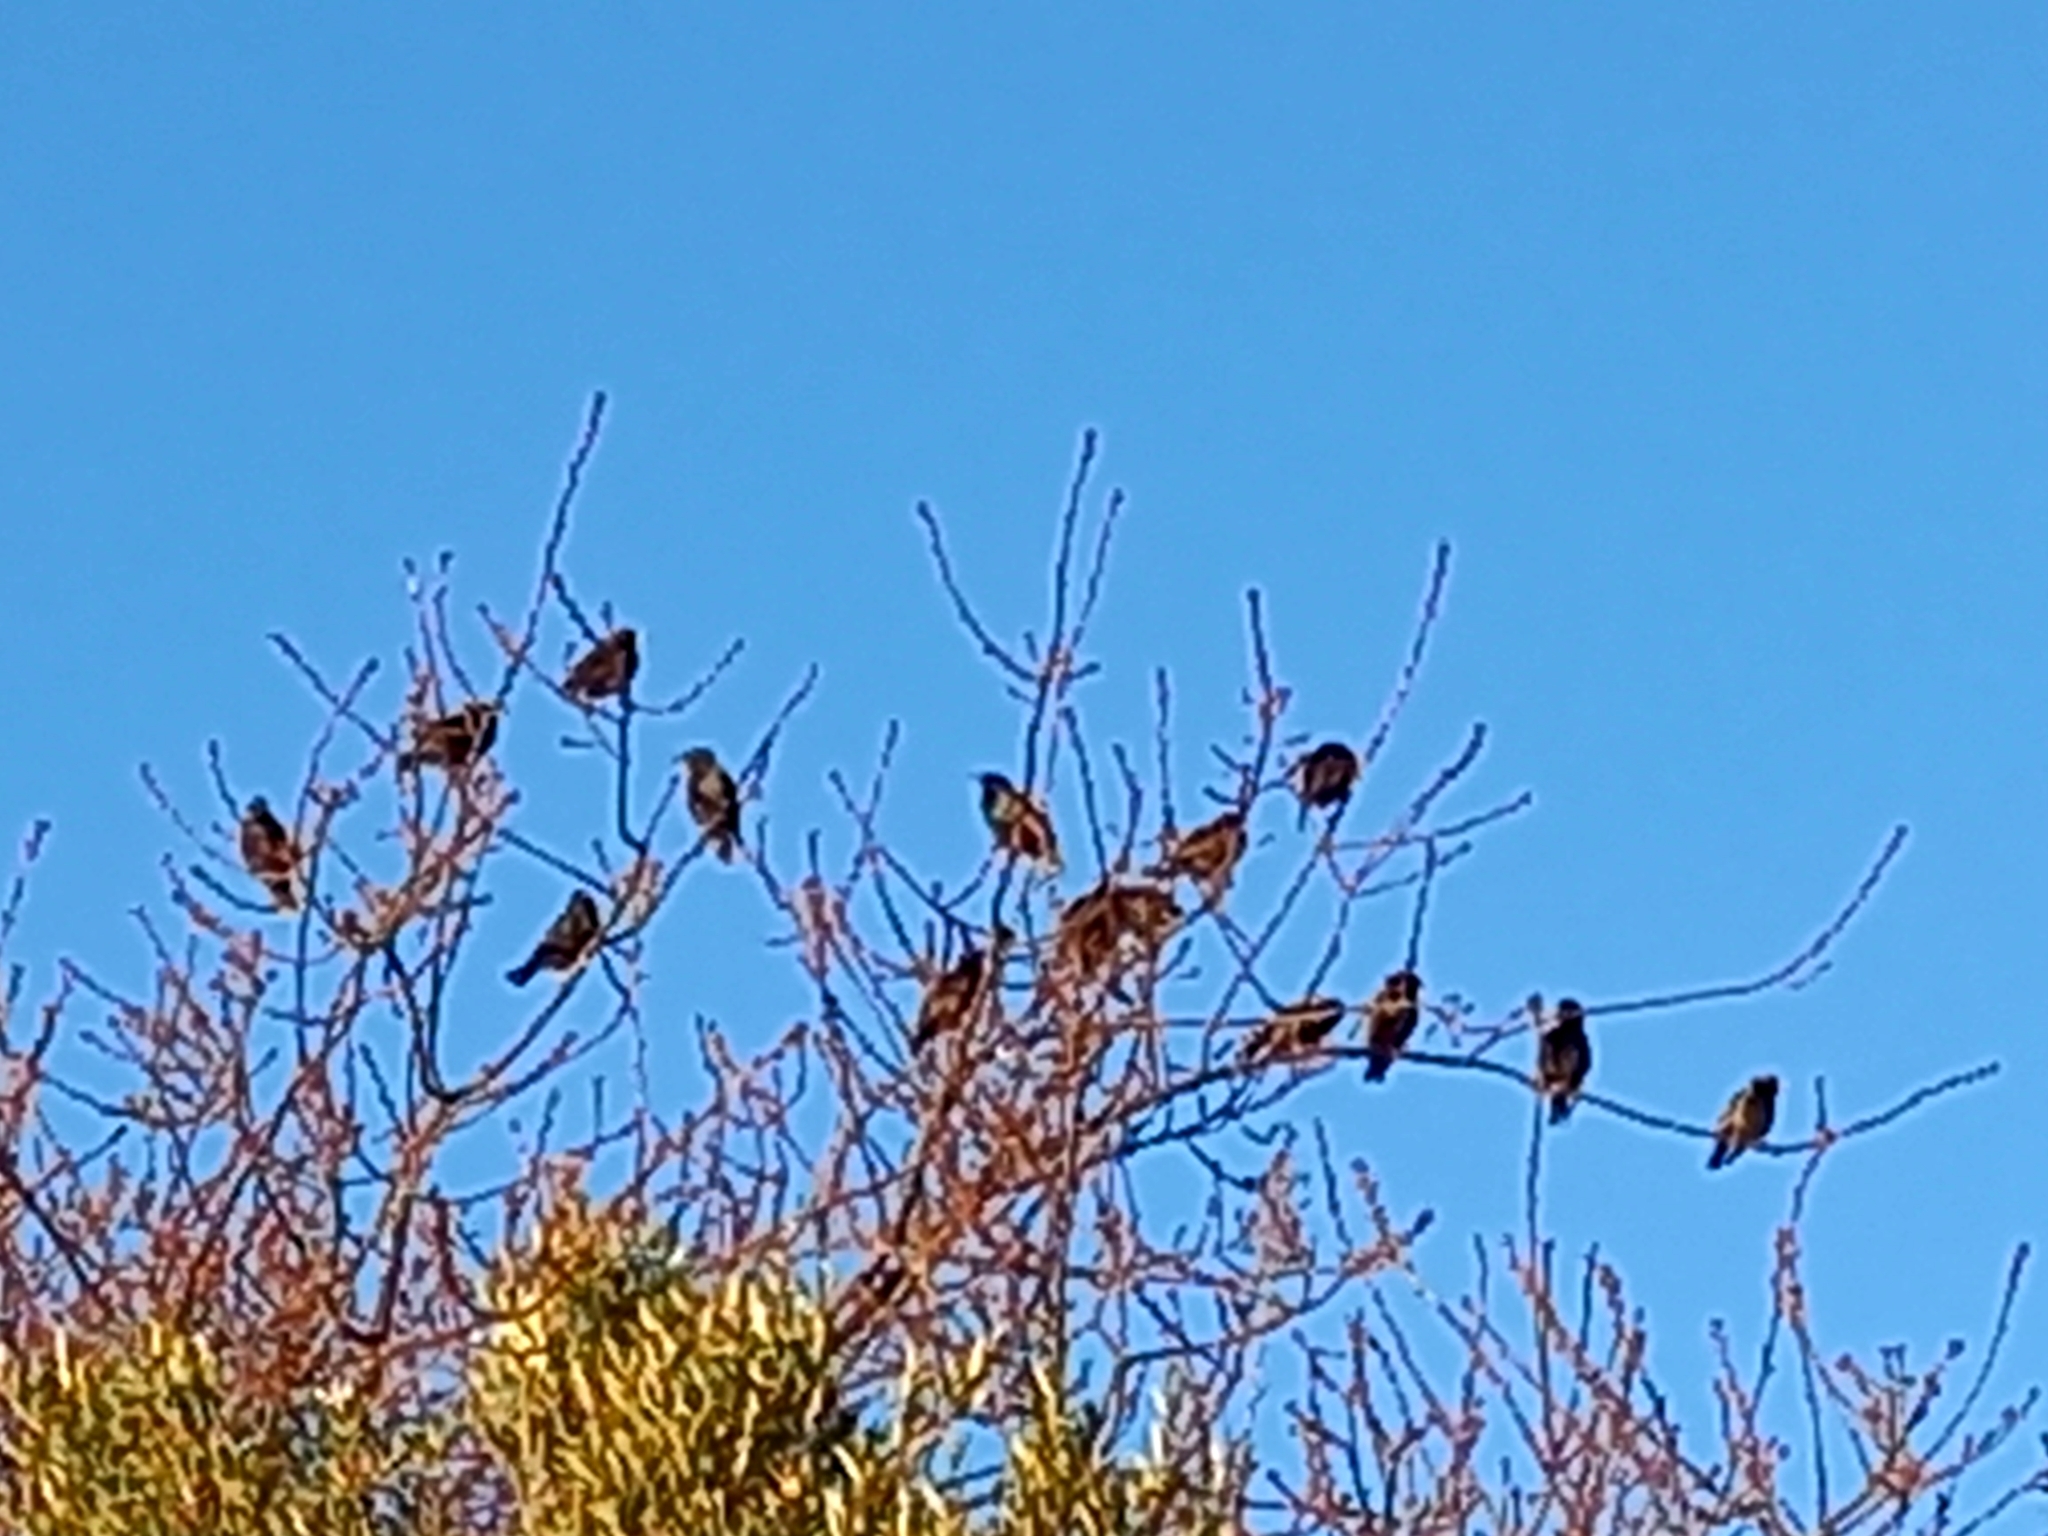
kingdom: Animalia
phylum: Chordata
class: Aves
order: Passeriformes
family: Sturnidae
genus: Sturnus
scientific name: Sturnus vulgaris
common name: Common starling
